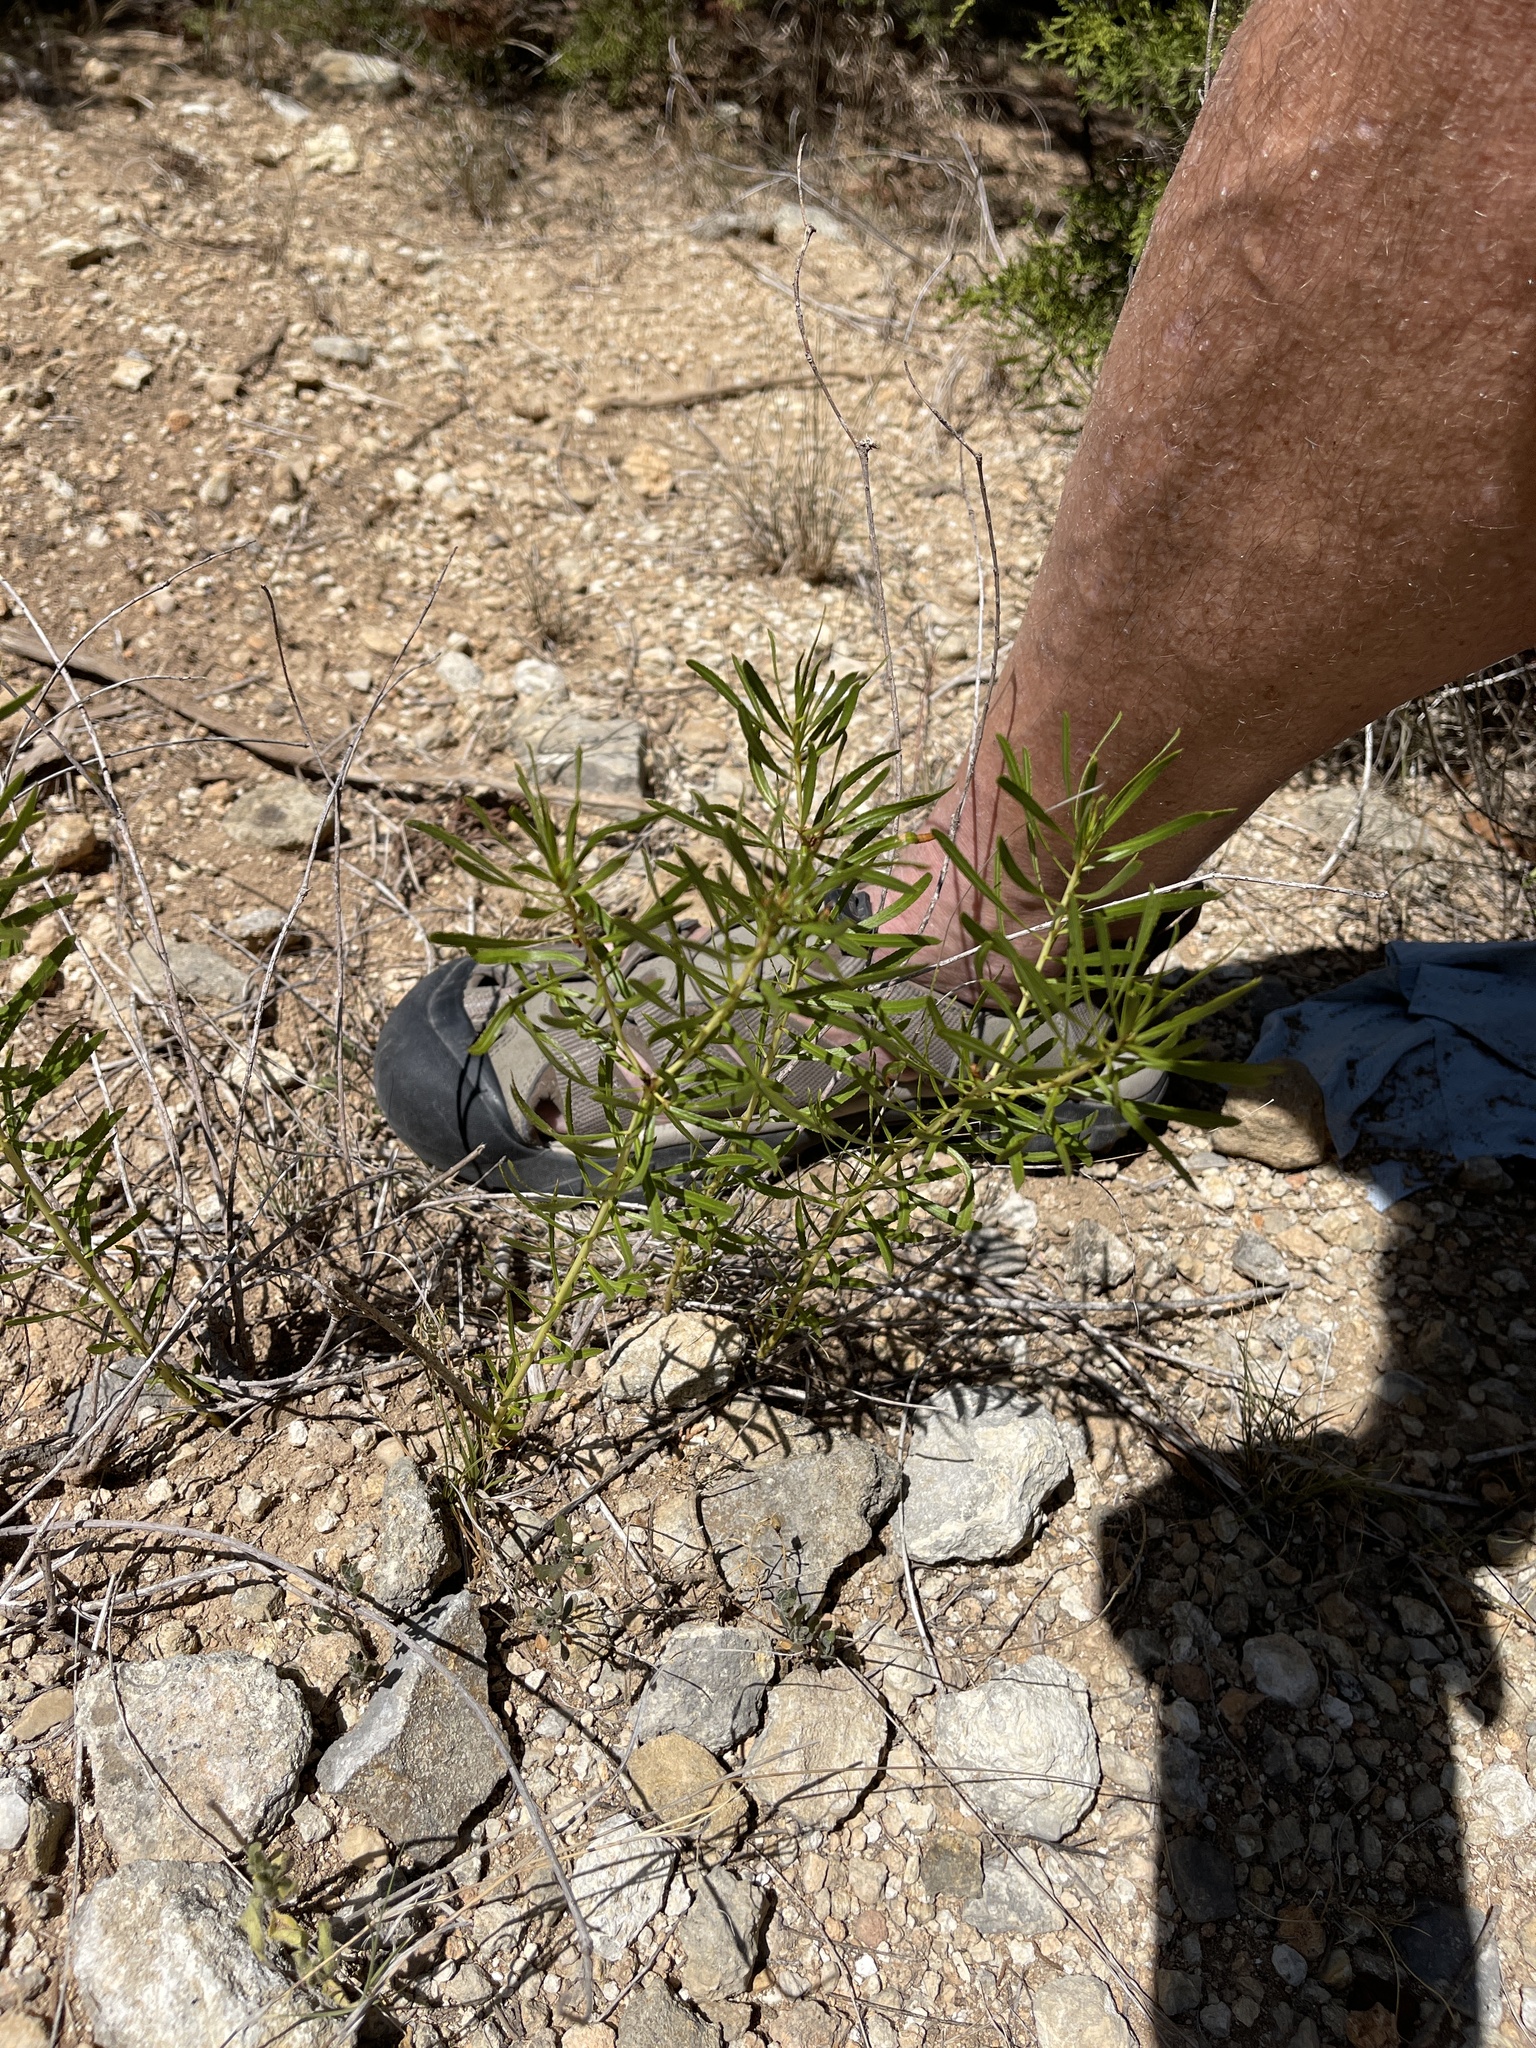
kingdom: Plantae
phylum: Tracheophyta
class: Magnoliopsida
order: Malpighiales
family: Euphorbiaceae
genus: Stillingia
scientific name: Stillingia texana
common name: Texas stillingia
